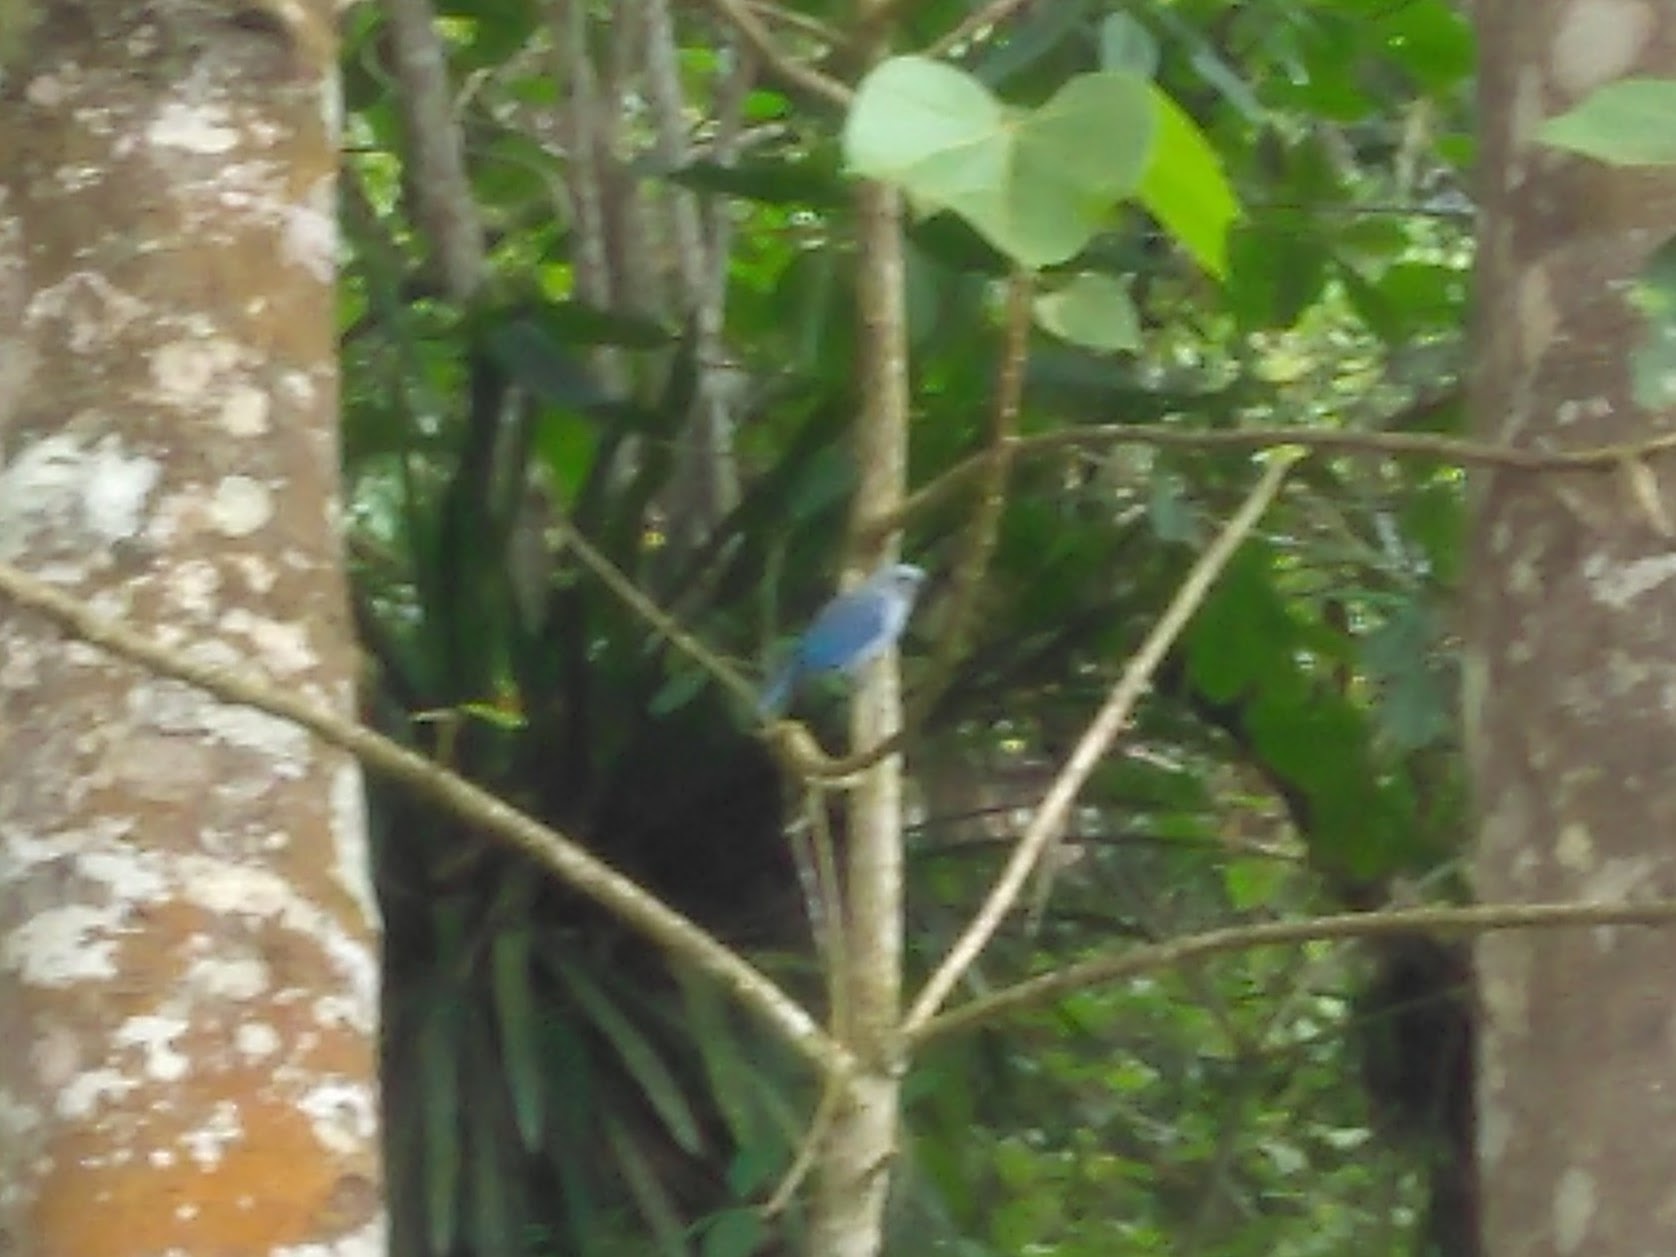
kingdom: Animalia
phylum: Chordata
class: Aves
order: Passeriformes
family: Thraupidae
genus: Thraupis
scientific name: Thraupis episcopus
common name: Blue-grey tanager
